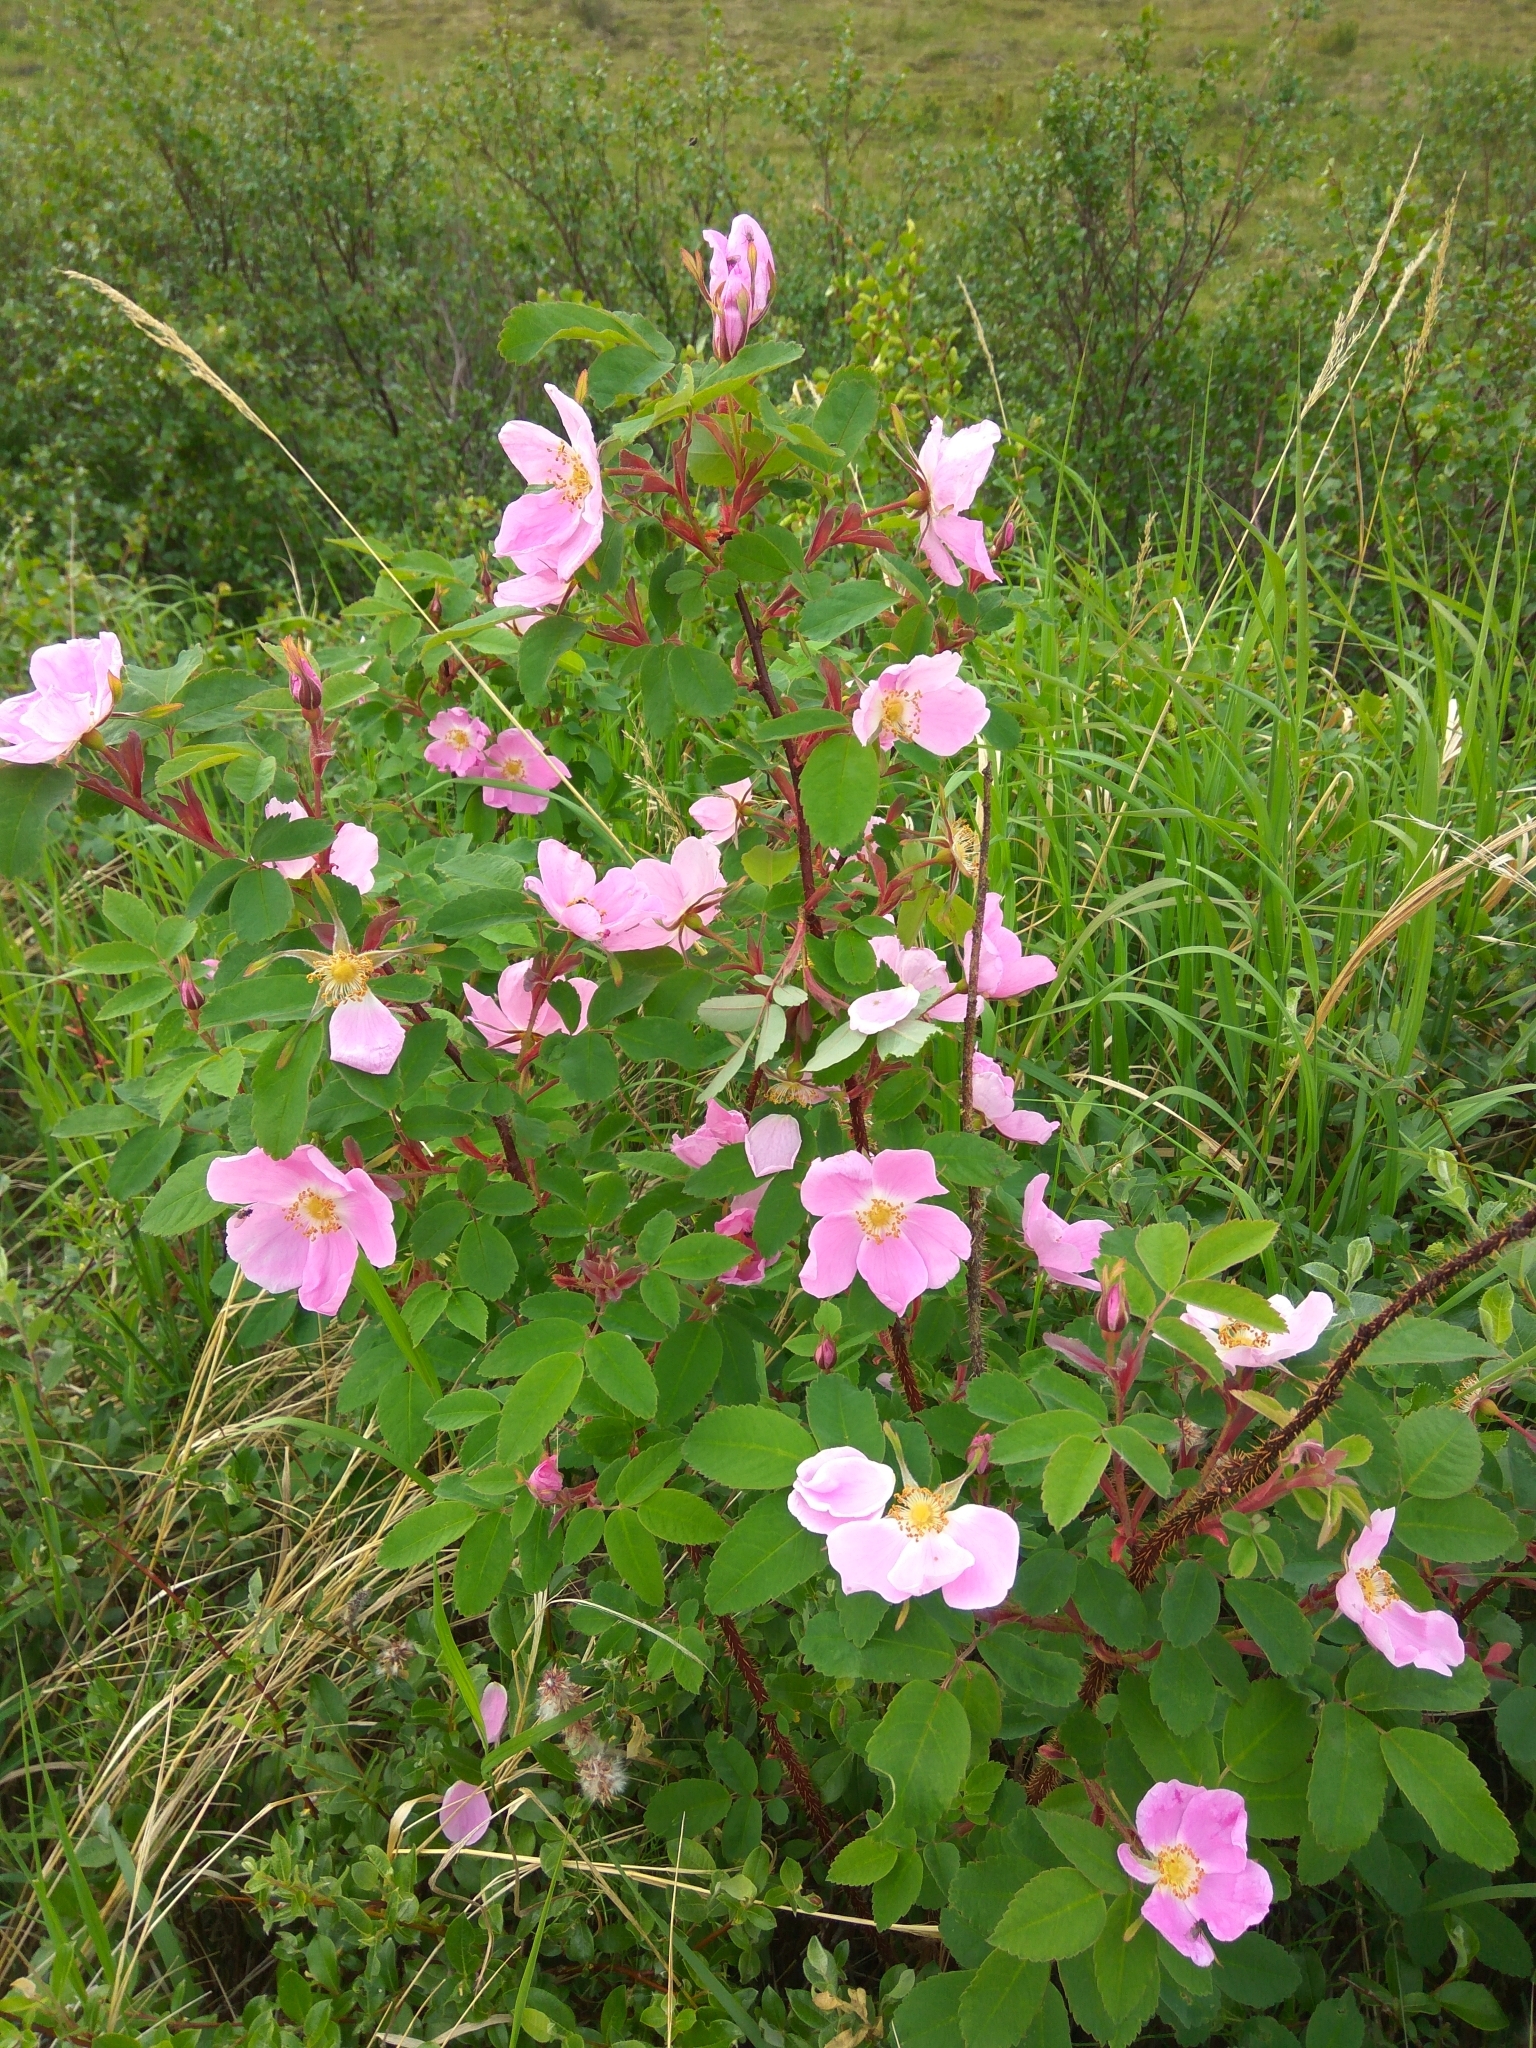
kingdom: Plantae
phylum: Tracheophyta
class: Magnoliopsida
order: Rosales
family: Rosaceae
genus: Rosa
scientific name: Rosa davurica
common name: Amur rose
